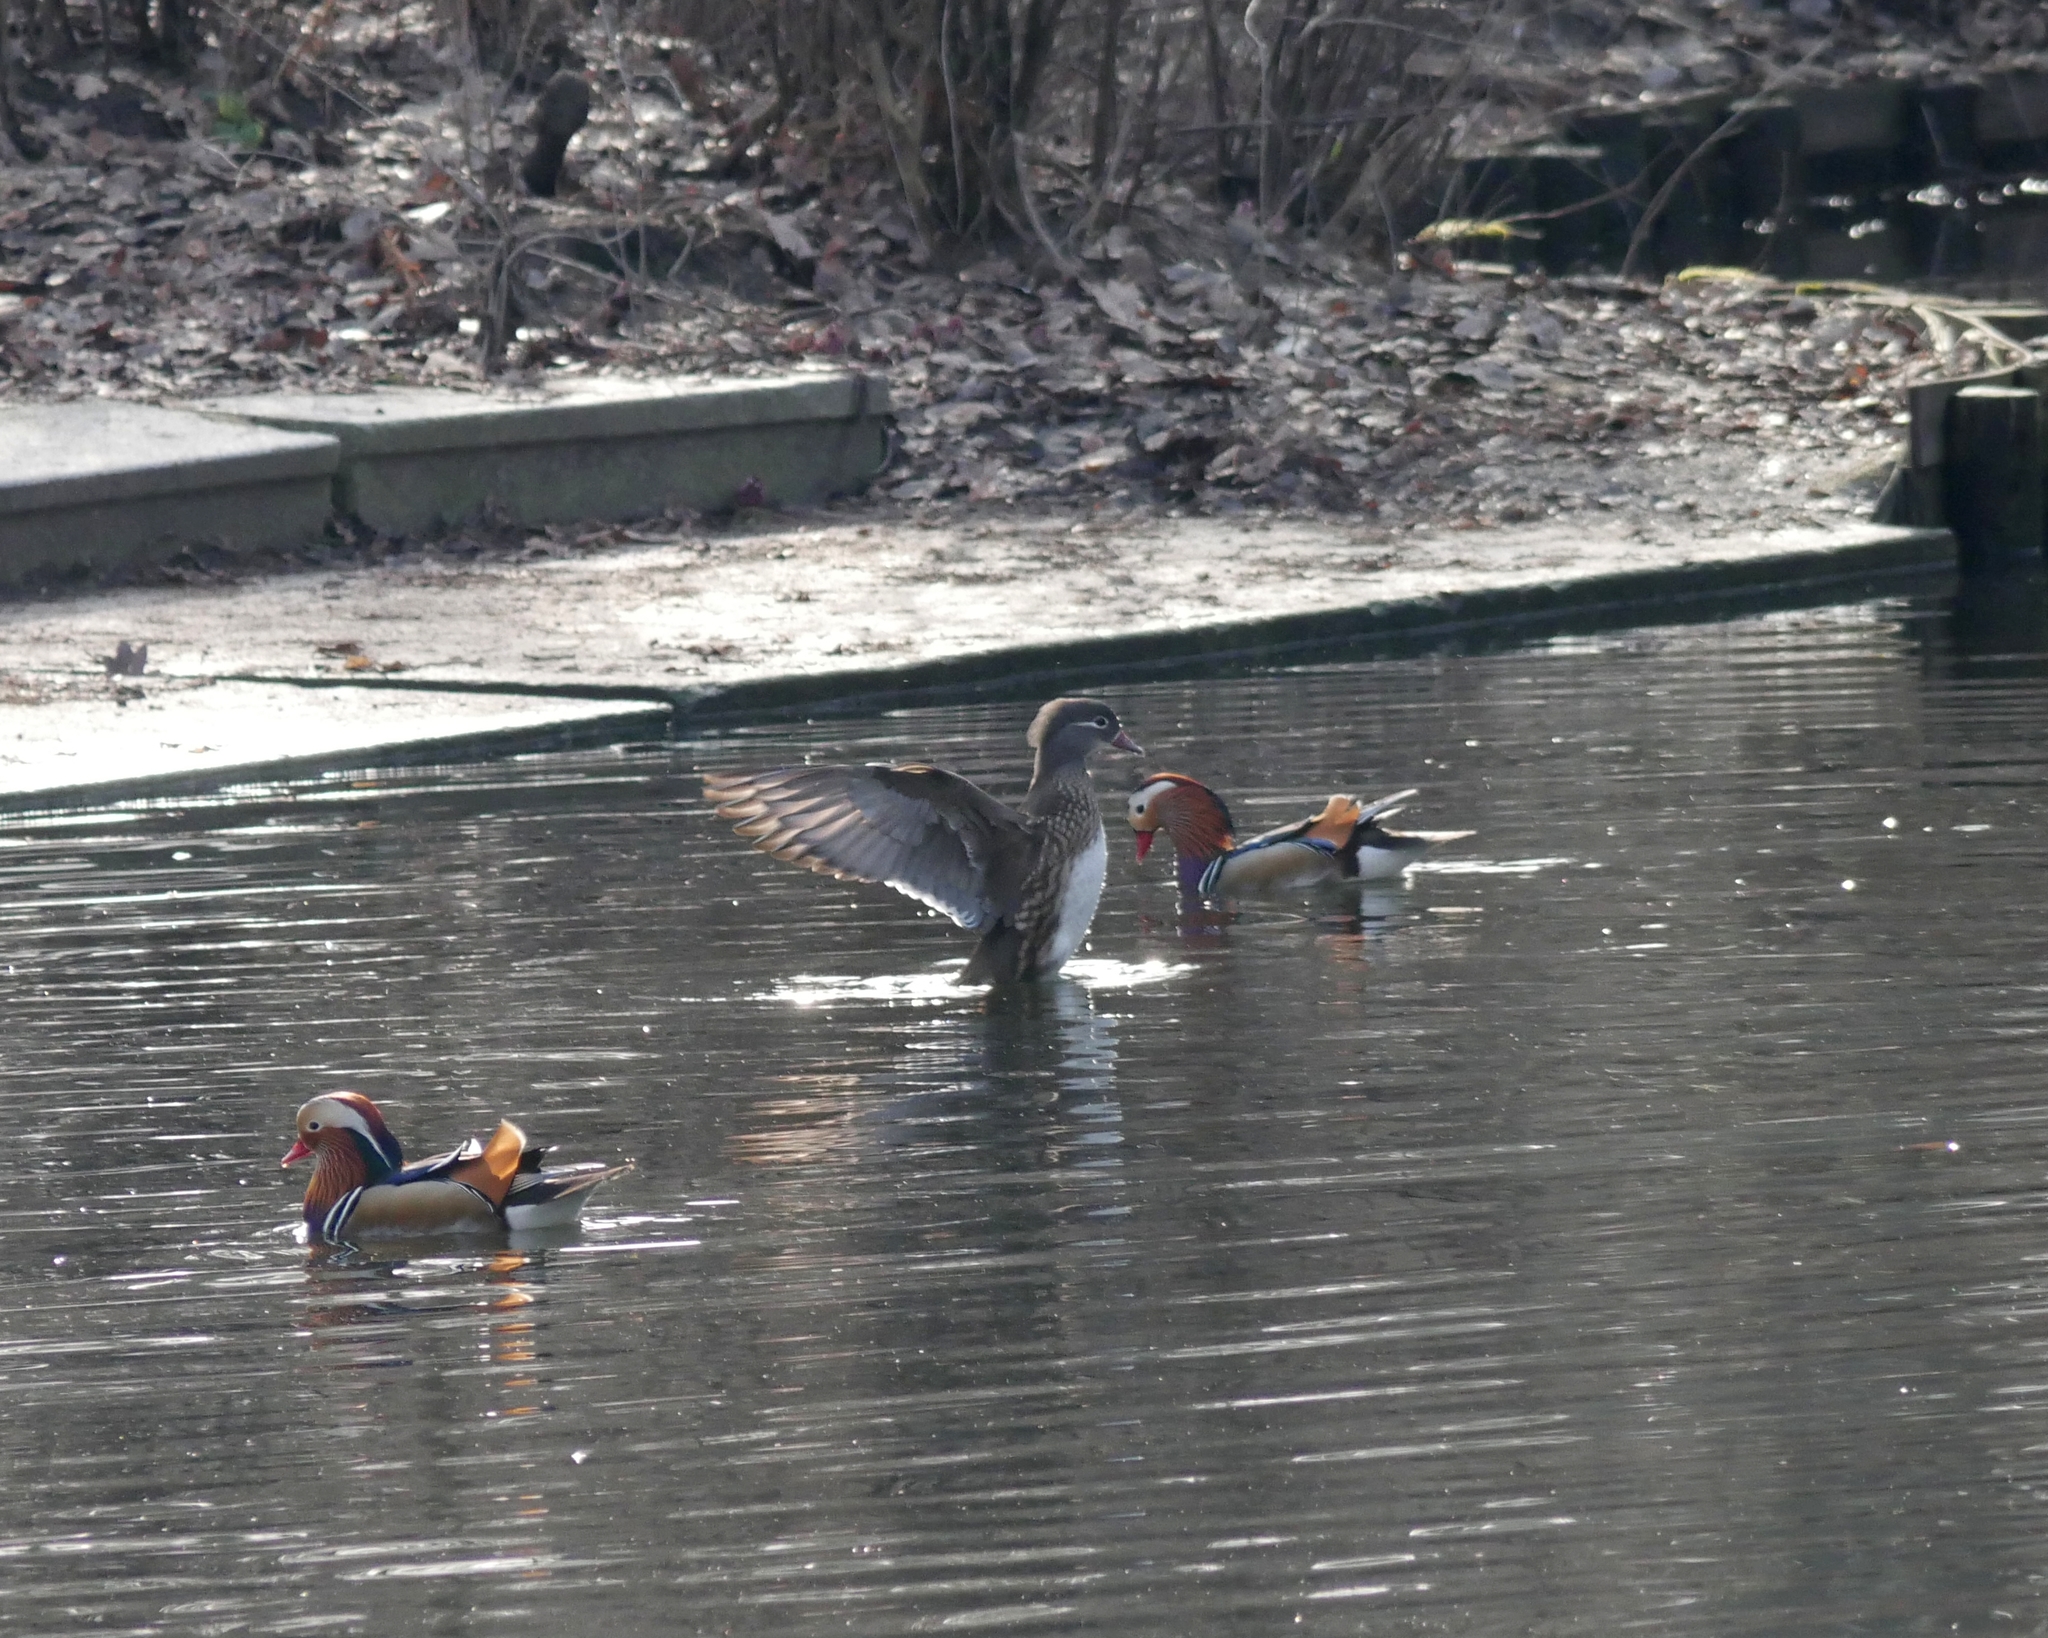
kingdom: Animalia
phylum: Chordata
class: Aves
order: Anseriformes
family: Anatidae
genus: Aix
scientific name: Aix galericulata
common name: Mandarin duck
